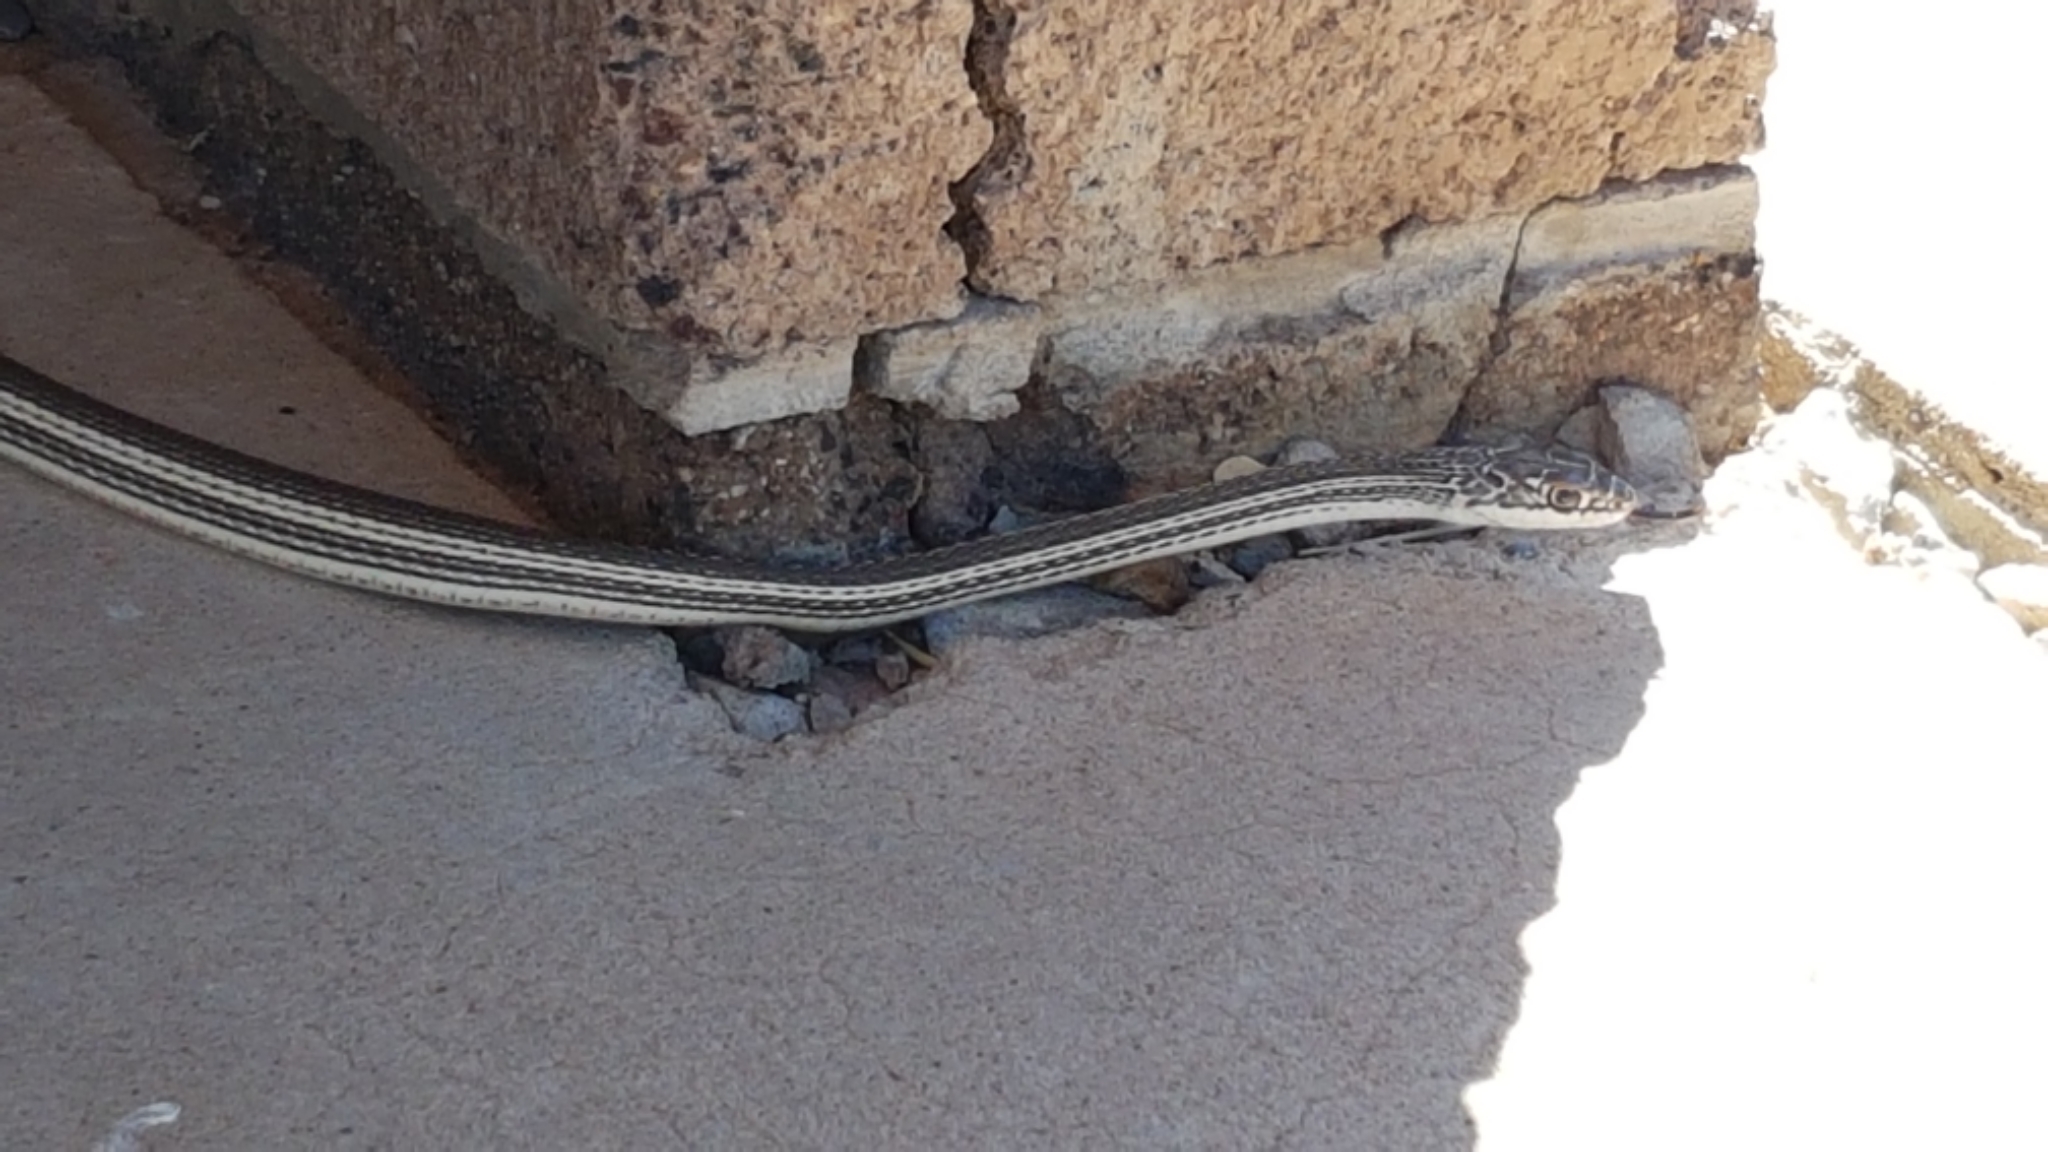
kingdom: Animalia
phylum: Chordata
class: Squamata
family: Colubridae
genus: Masticophis
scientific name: Masticophis taeniatus
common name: Striped whipsnake
